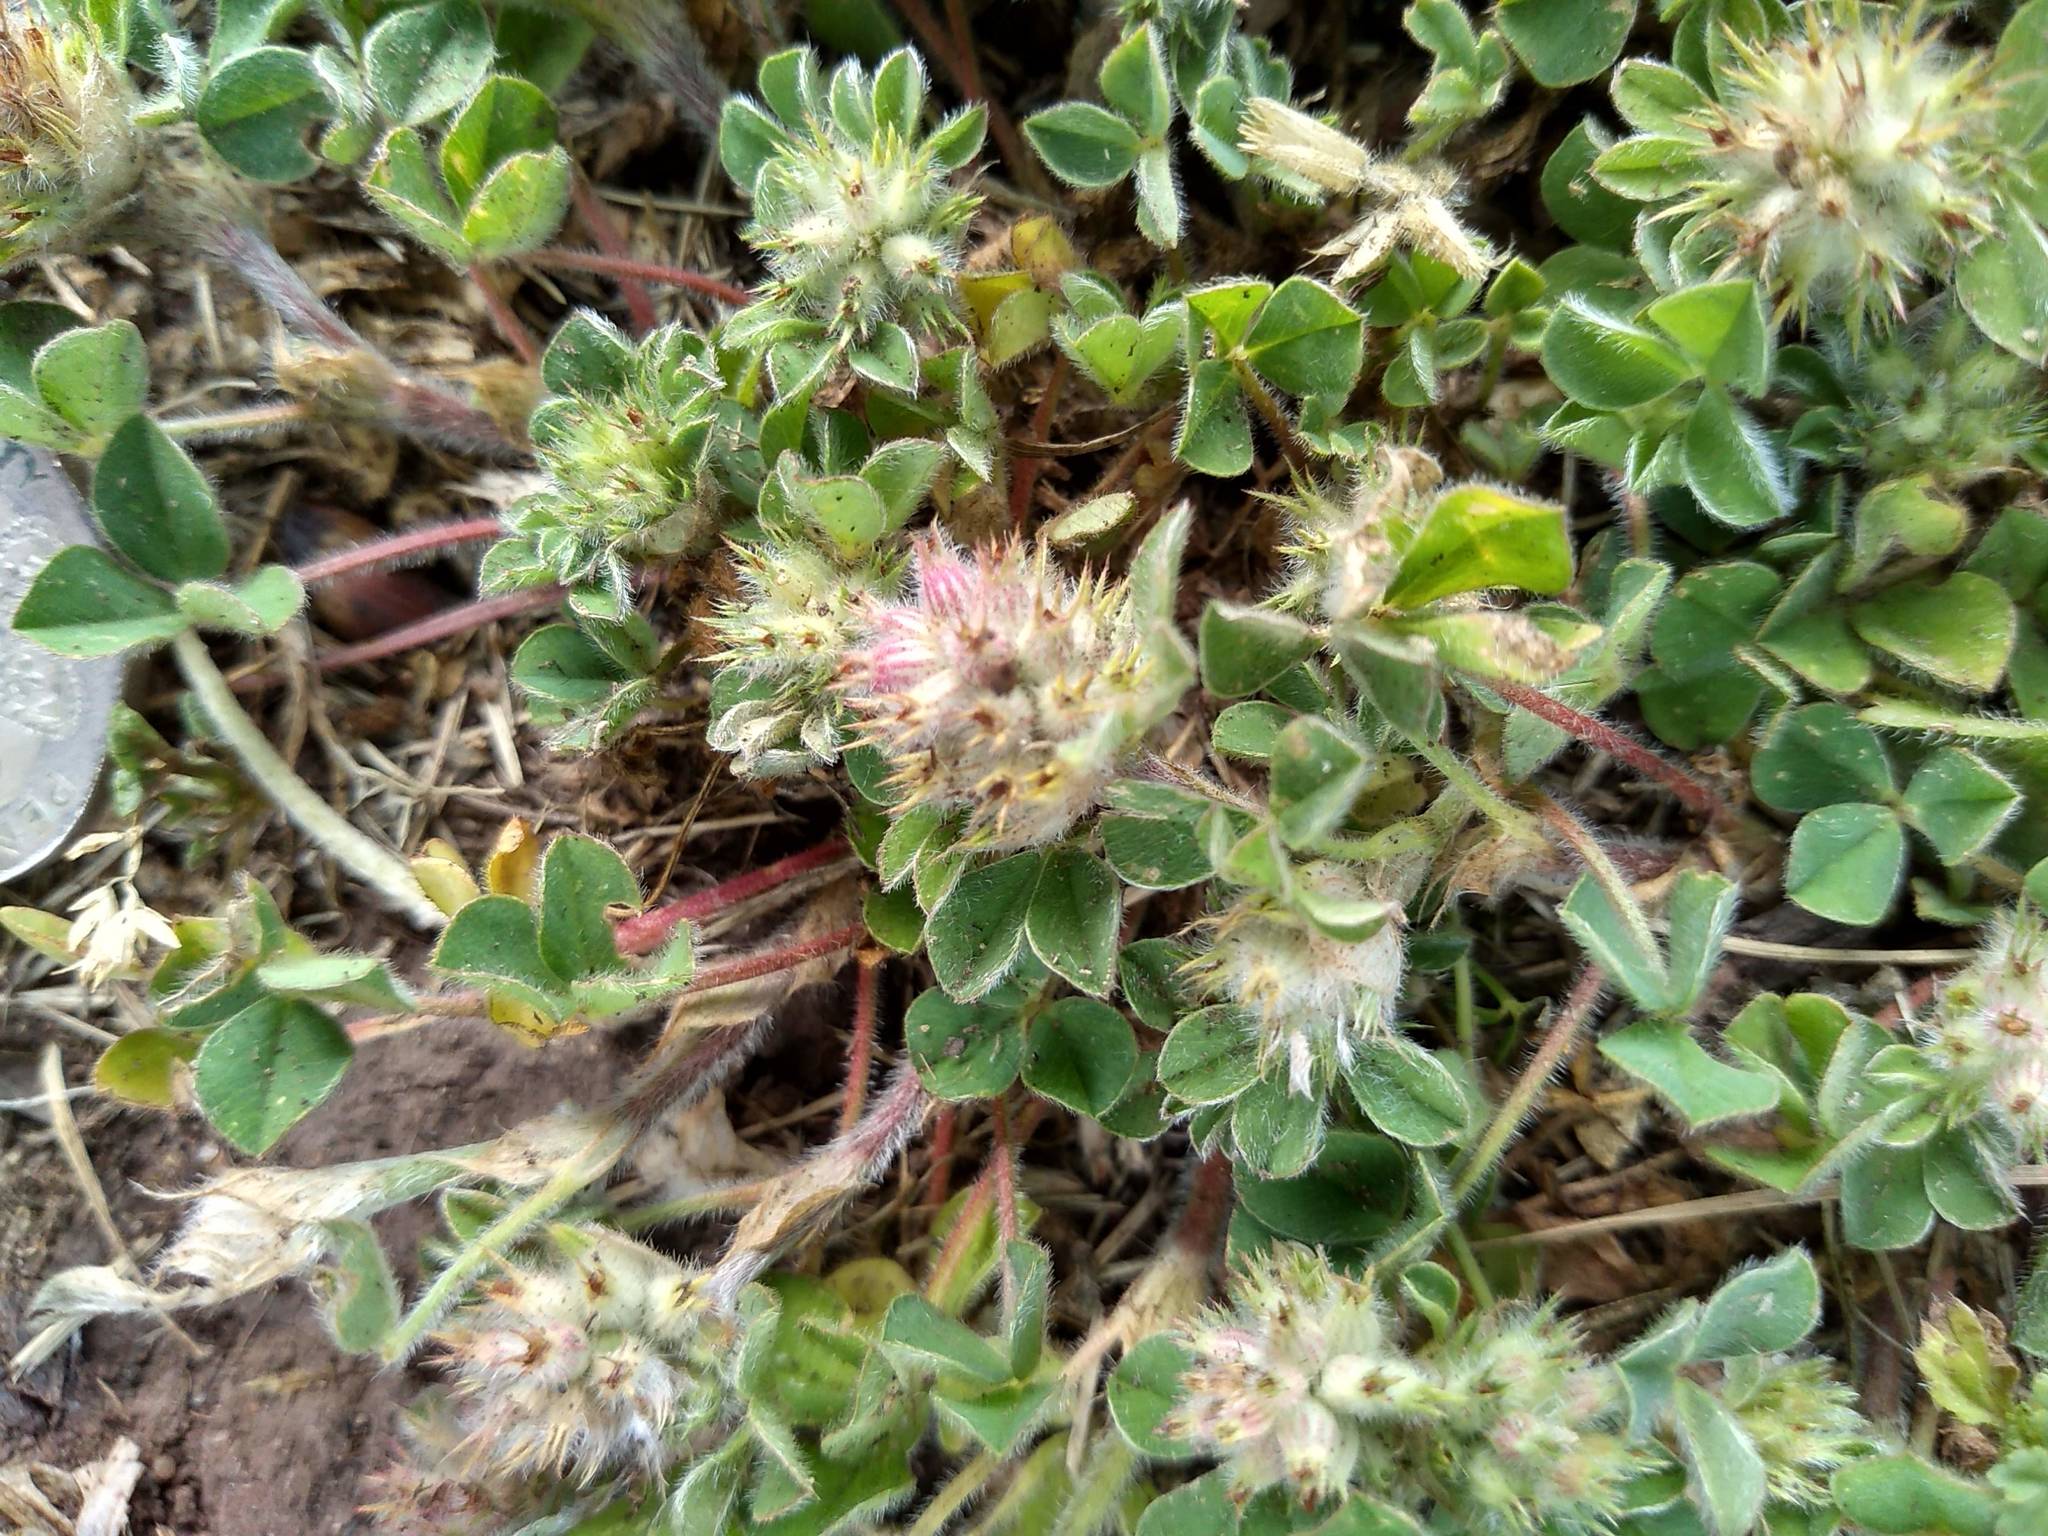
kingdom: Plantae
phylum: Tracheophyta
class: Magnoliopsida
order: Fabales
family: Fabaceae
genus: Trifolium
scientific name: Trifolium striatum
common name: Knotted clover
